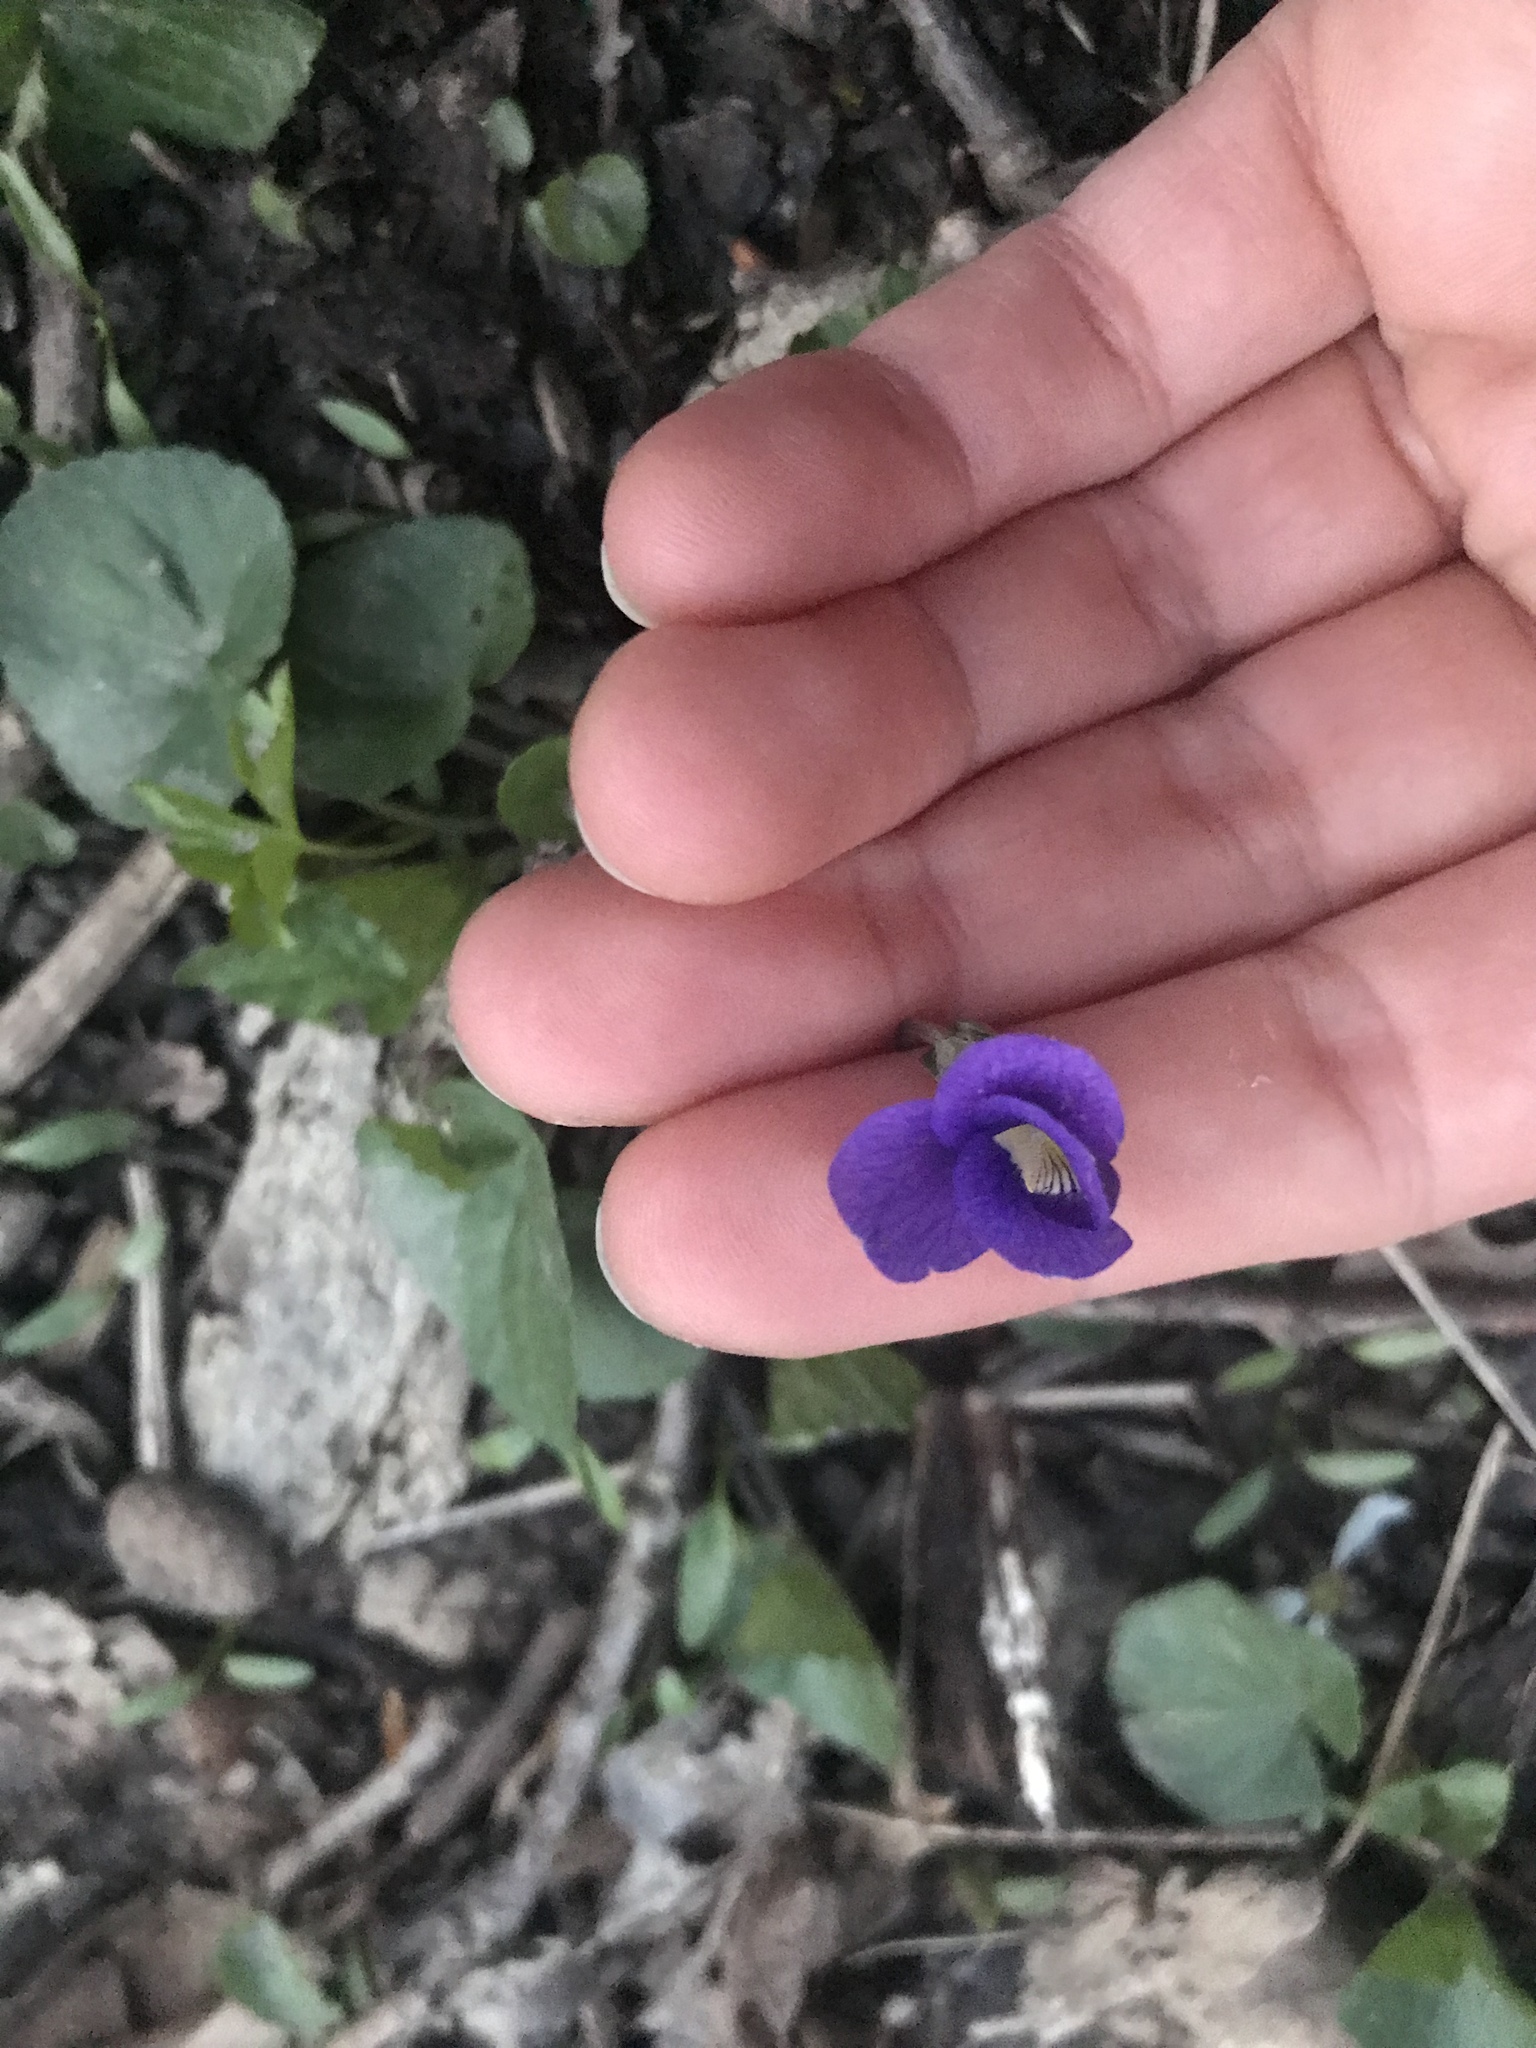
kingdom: Plantae
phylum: Tracheophyta
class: Magnoliopsida
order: Malpighiales
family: Violaceae
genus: Viola
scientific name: Viola sororia
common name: Dooryard violet
